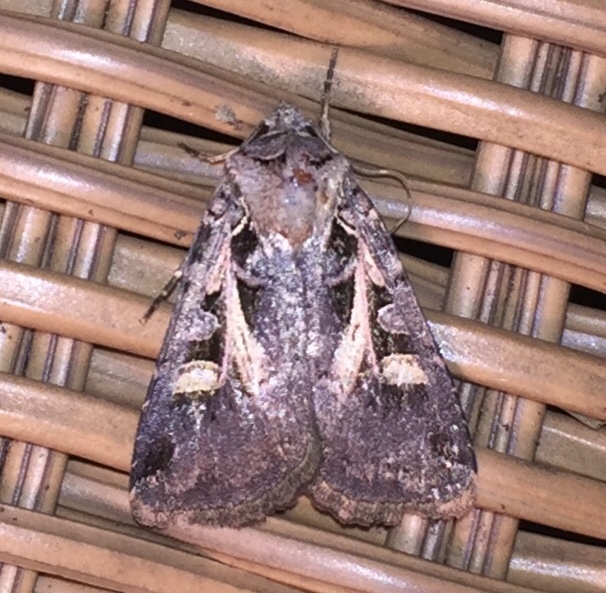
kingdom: Animalia
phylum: Arthropoda
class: Insecta
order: Lepidoptera
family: Noctuidae
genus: Feltia
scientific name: Feltia herilis
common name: Master's dart
